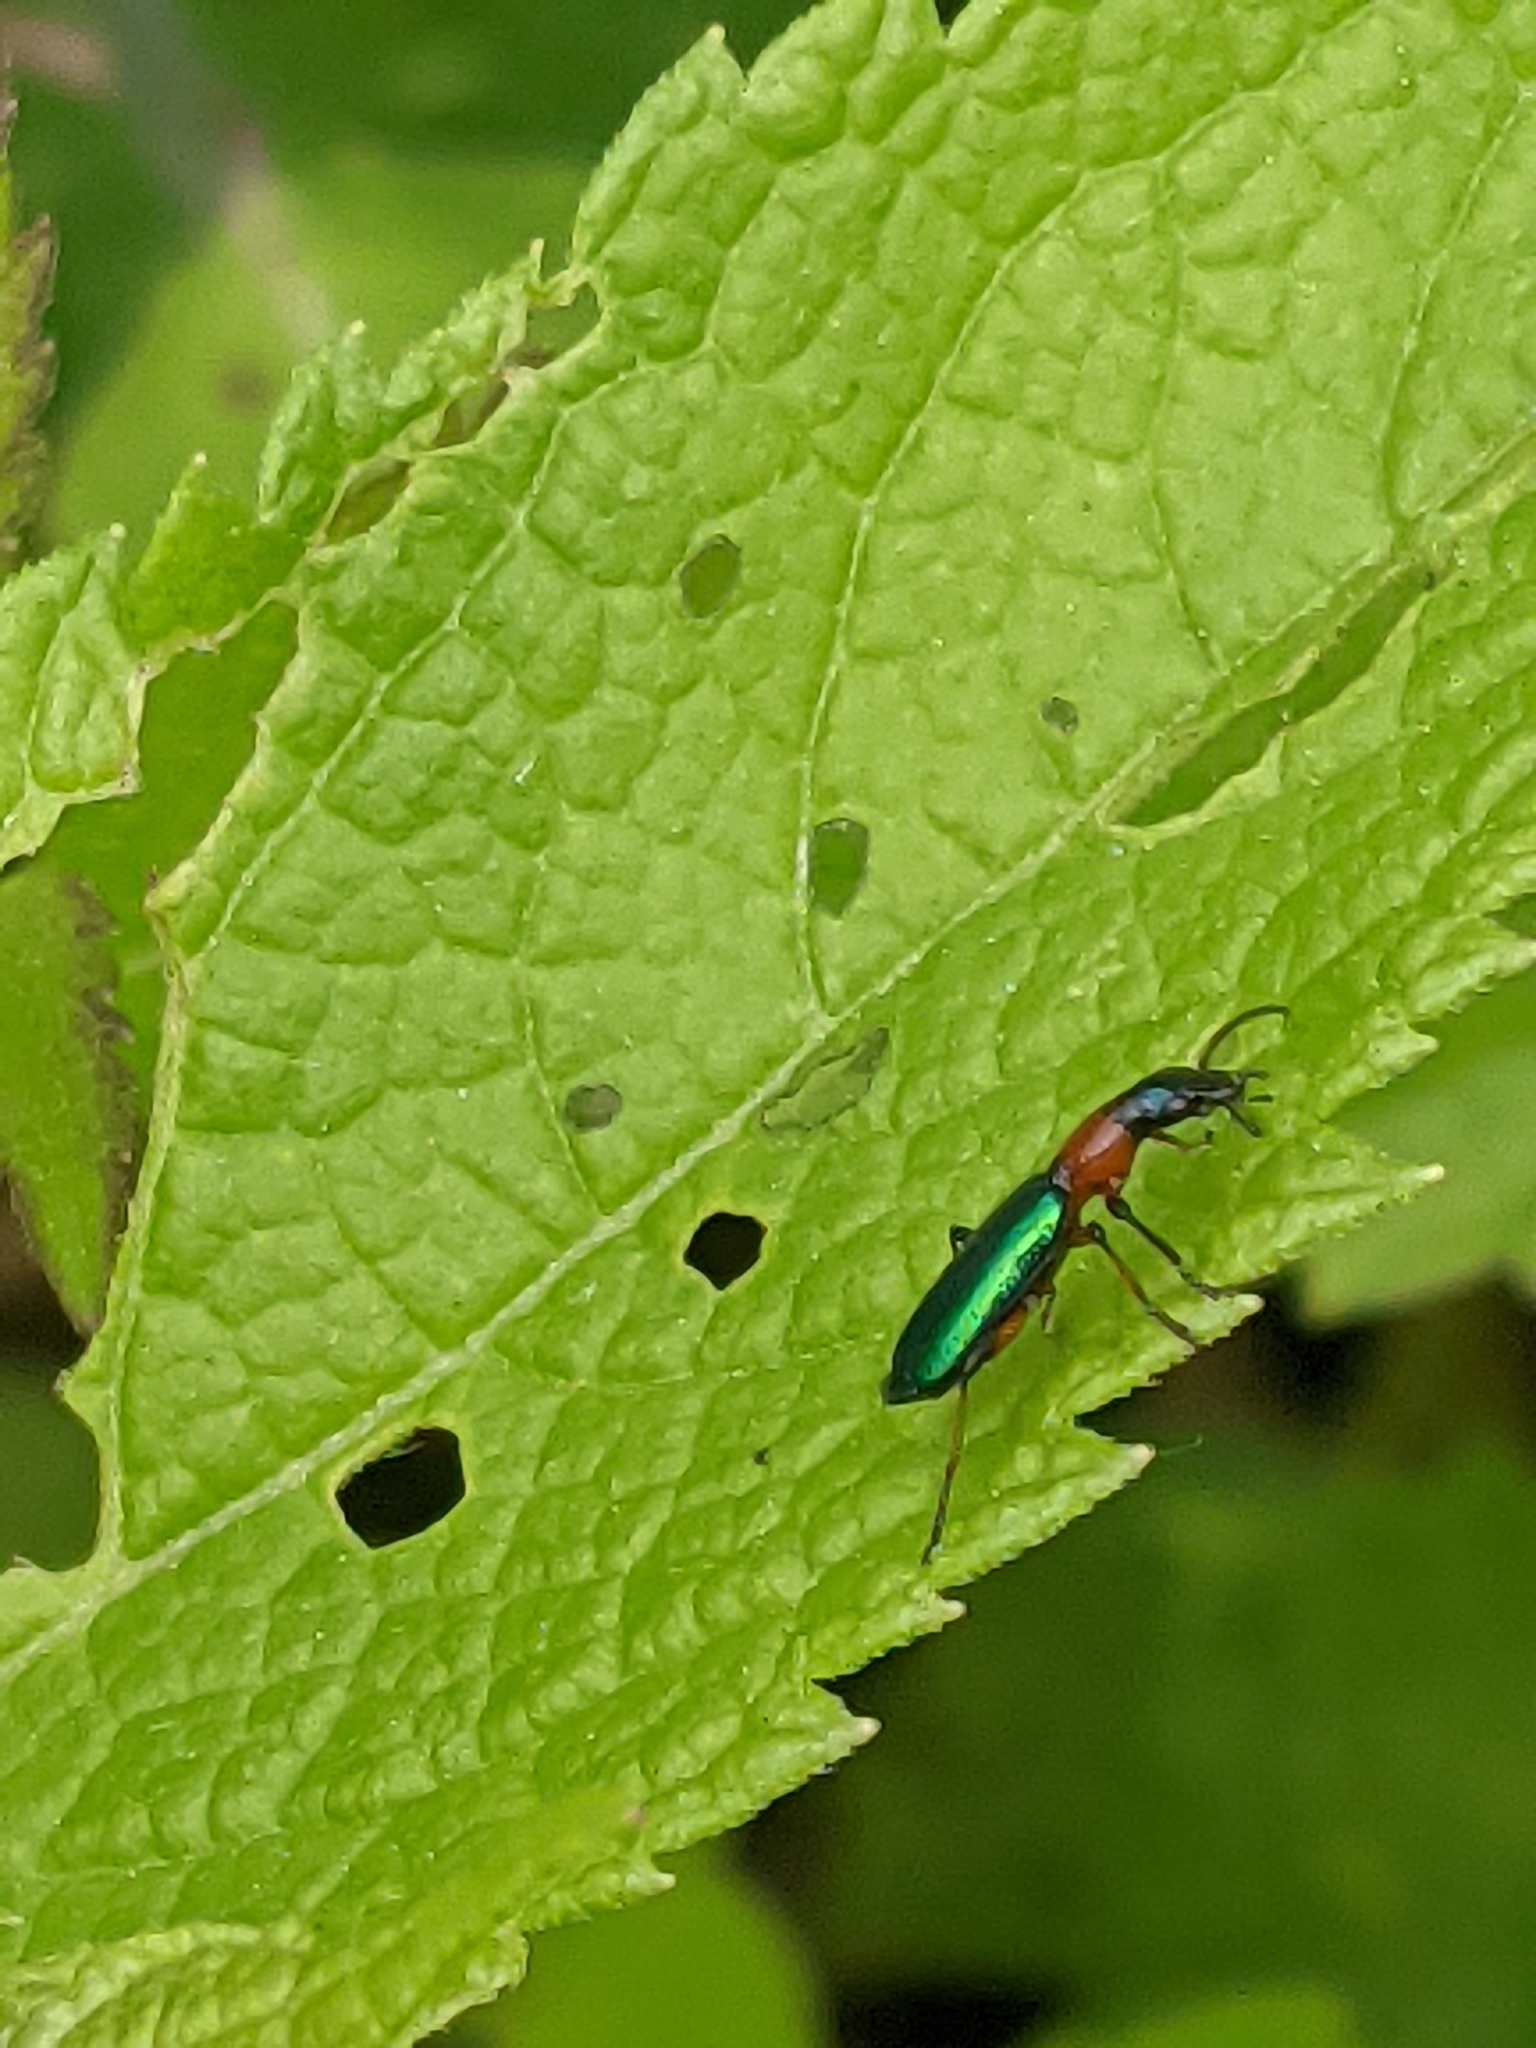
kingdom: Animalia
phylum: Arthropoda
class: Insecta
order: Coleoptera
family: Carabidae
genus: Calleida
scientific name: Calleida punctata
